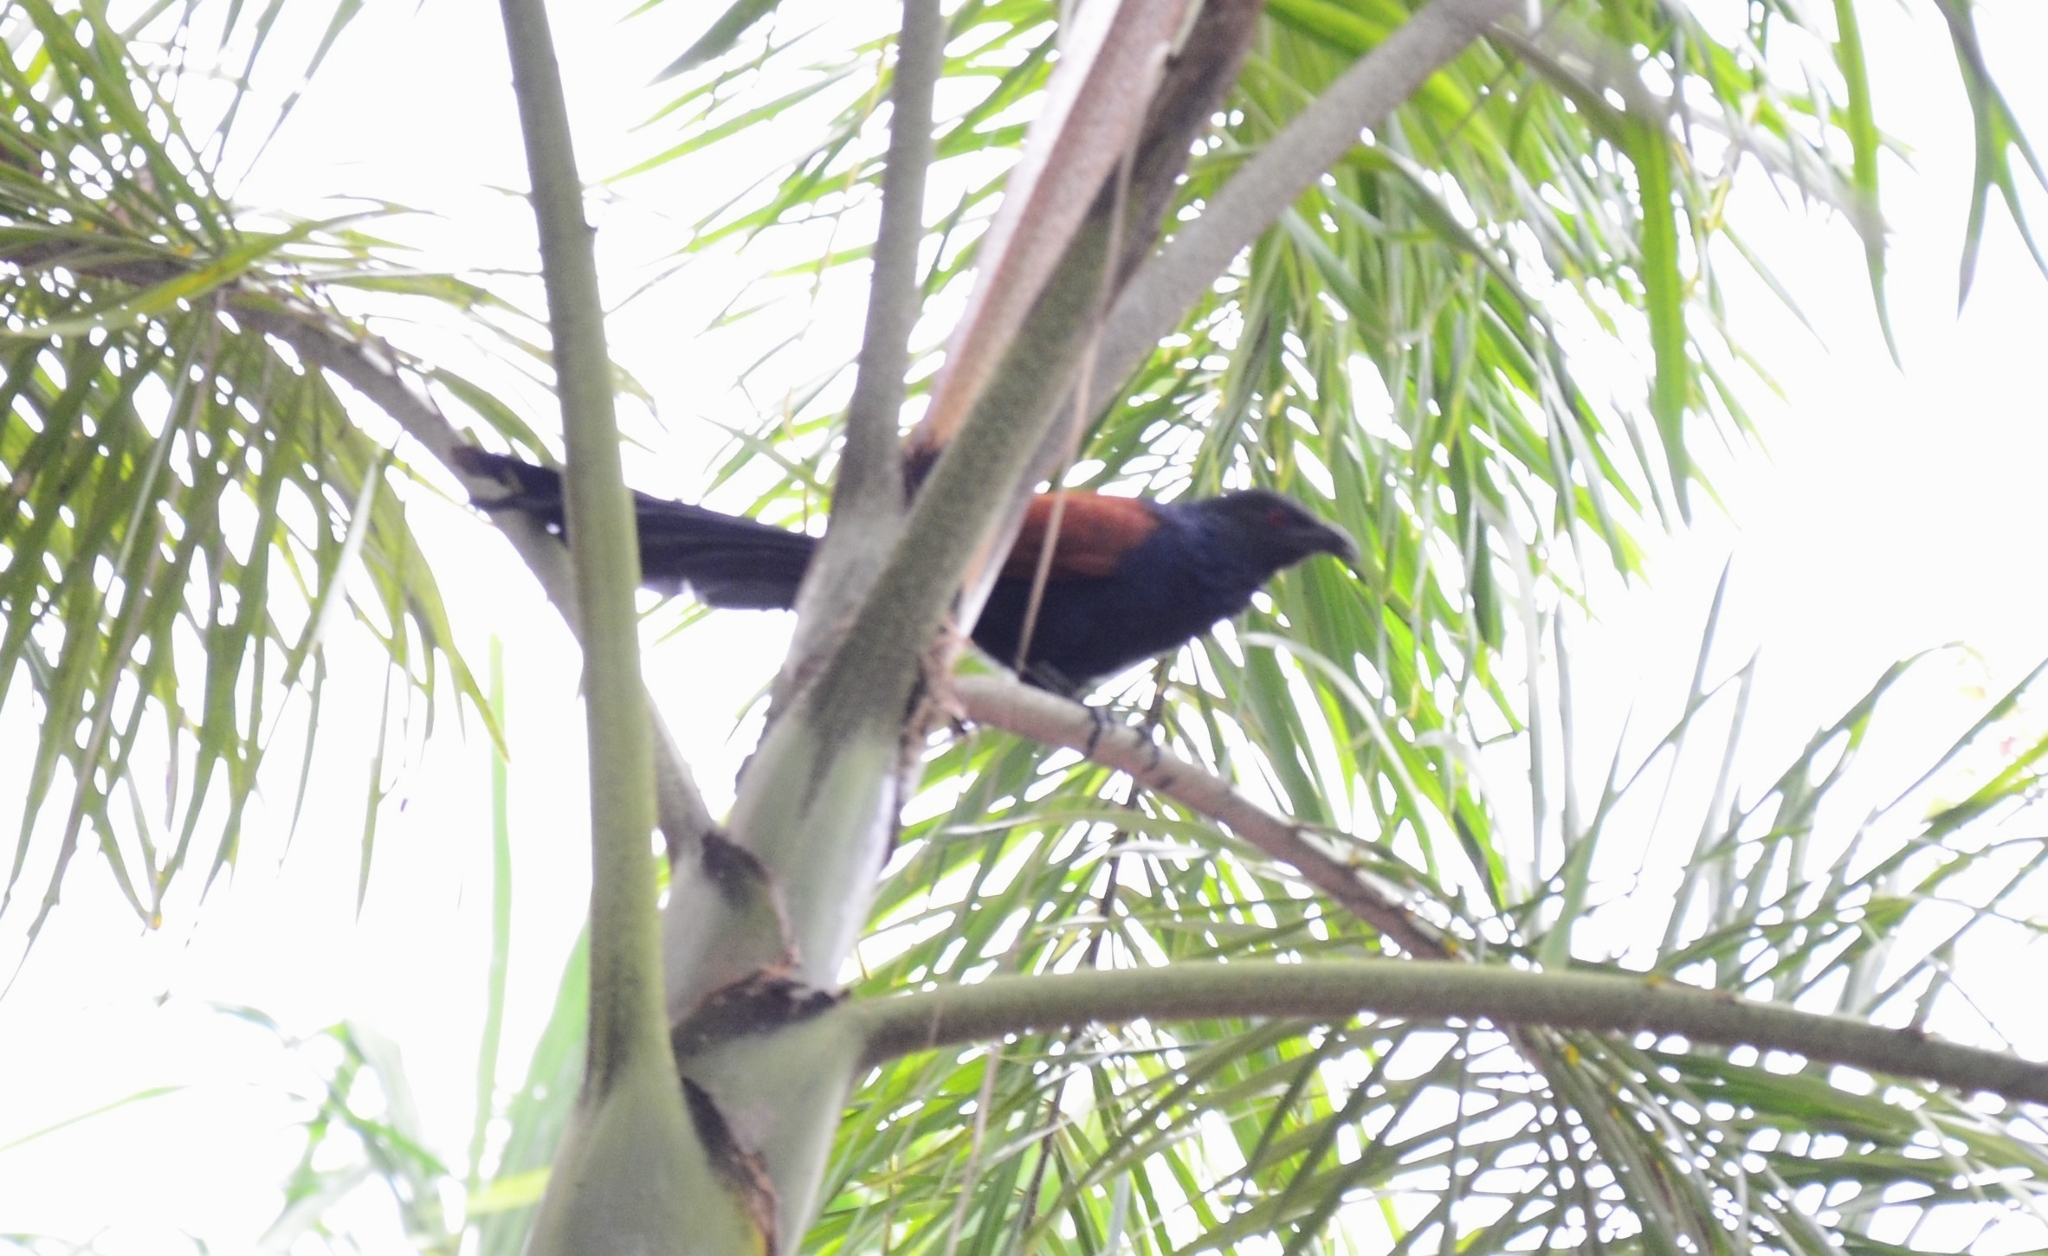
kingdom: Animalia
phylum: Chordata
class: Aves
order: Cuculiformes
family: Cuculidae
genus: Centropus
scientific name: Centropus sinensis
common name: Greater coucal
